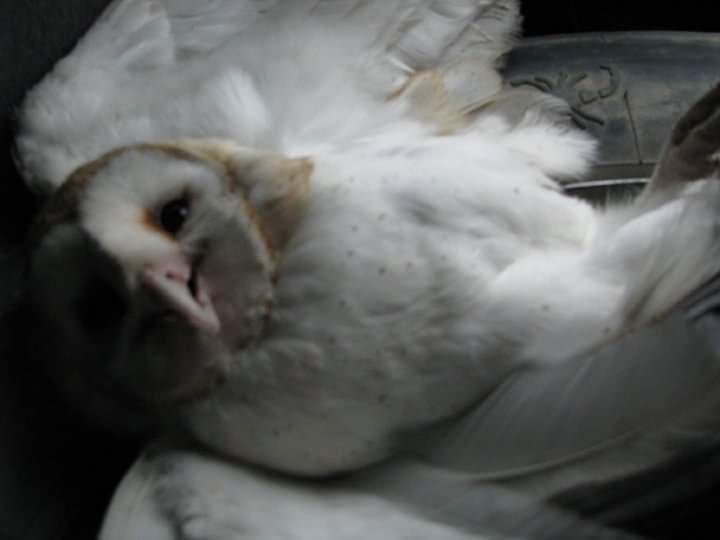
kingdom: Animalia
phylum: Chordata
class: Aves
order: Strigiformes
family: Tytonidae
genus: Tyto
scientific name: Tyto alba
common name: Barn owl
